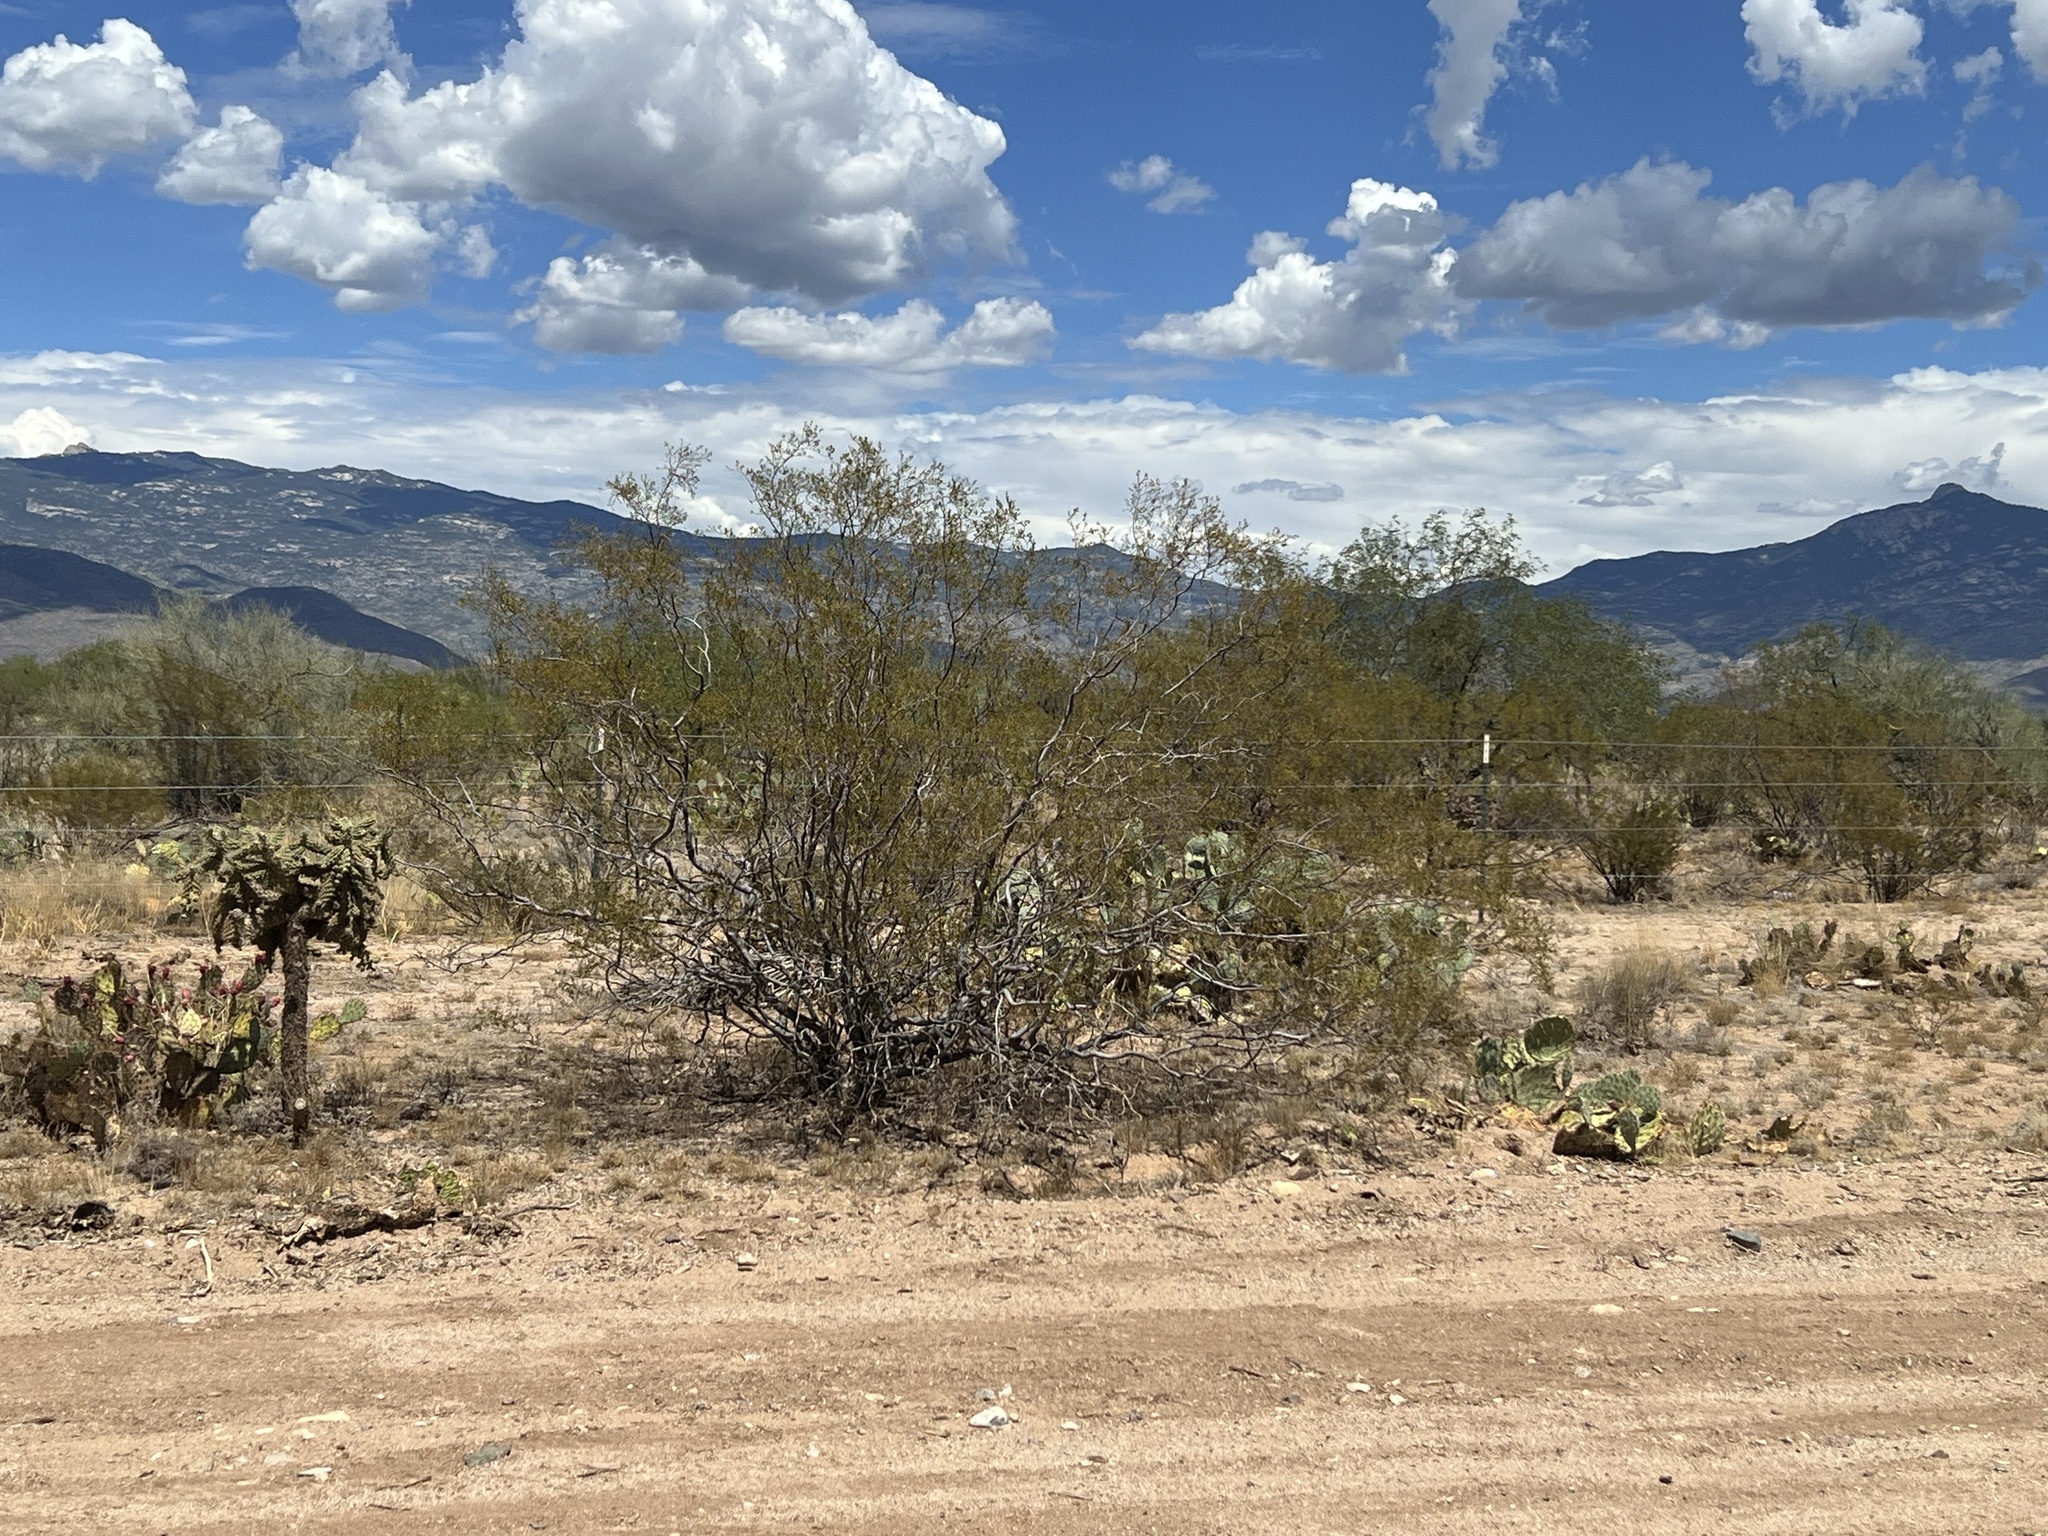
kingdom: Plantae
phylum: Tracheophyta
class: Magnoliopsida
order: Zygophyllales
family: Zygophyllaceae
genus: Larrea
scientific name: Larrea tridentata
